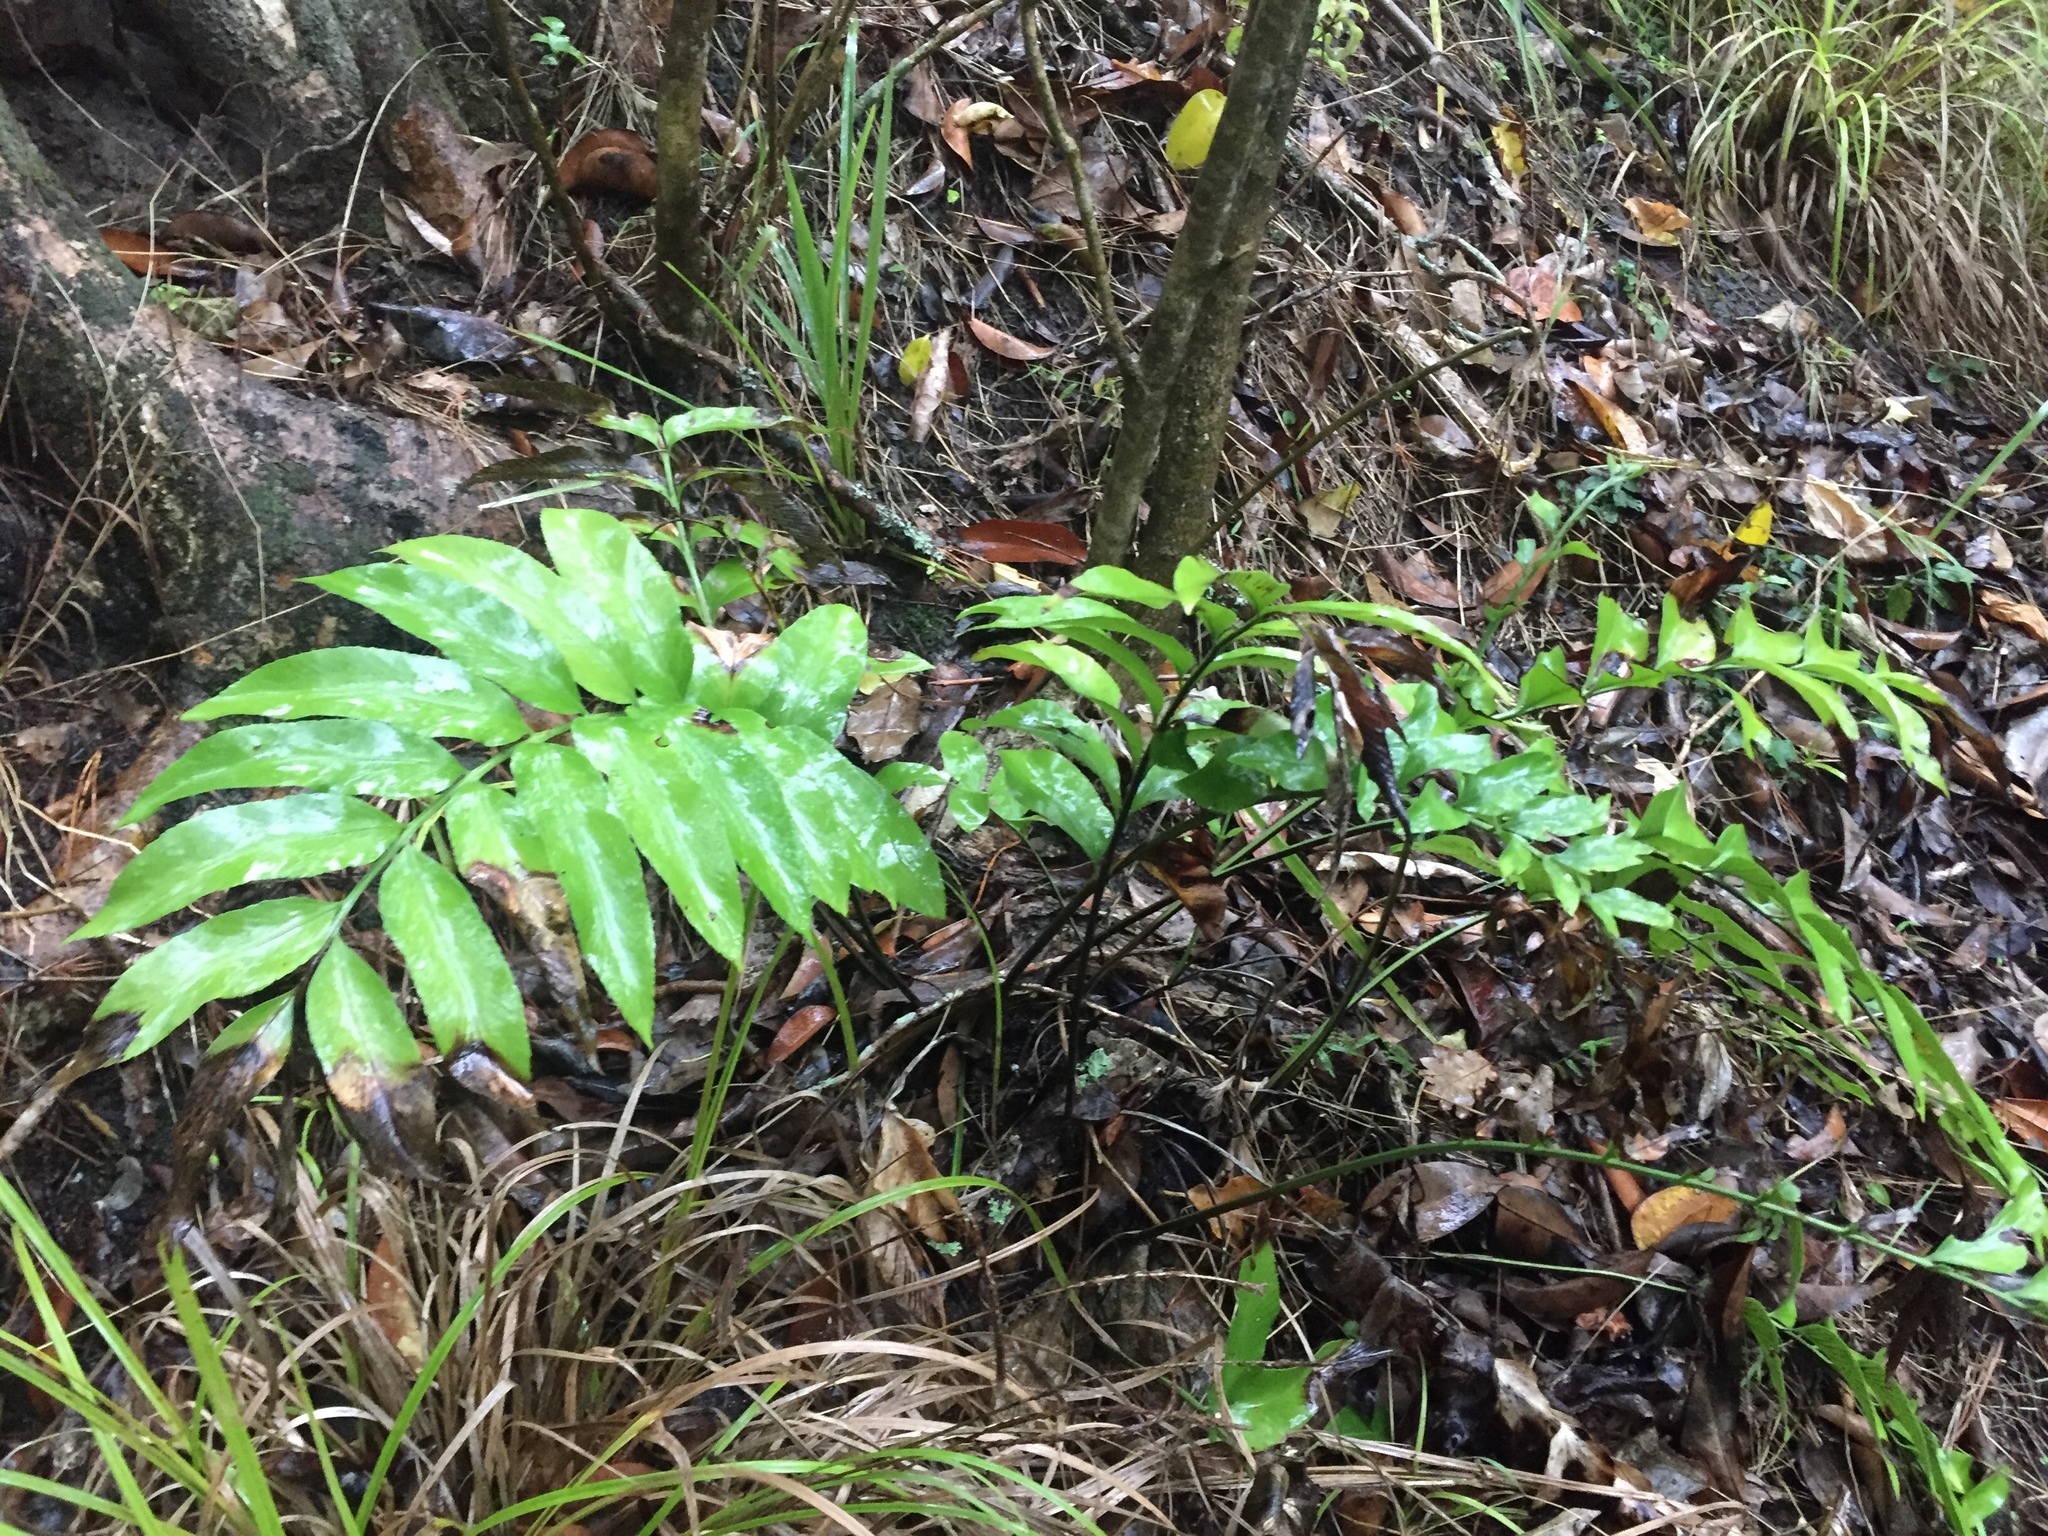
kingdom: Plantae
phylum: Tracheophyta
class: Polypodiopsida
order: Polypodiales
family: Aspleniaceae
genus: Asplenium
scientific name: Asplenium oblongifolium
